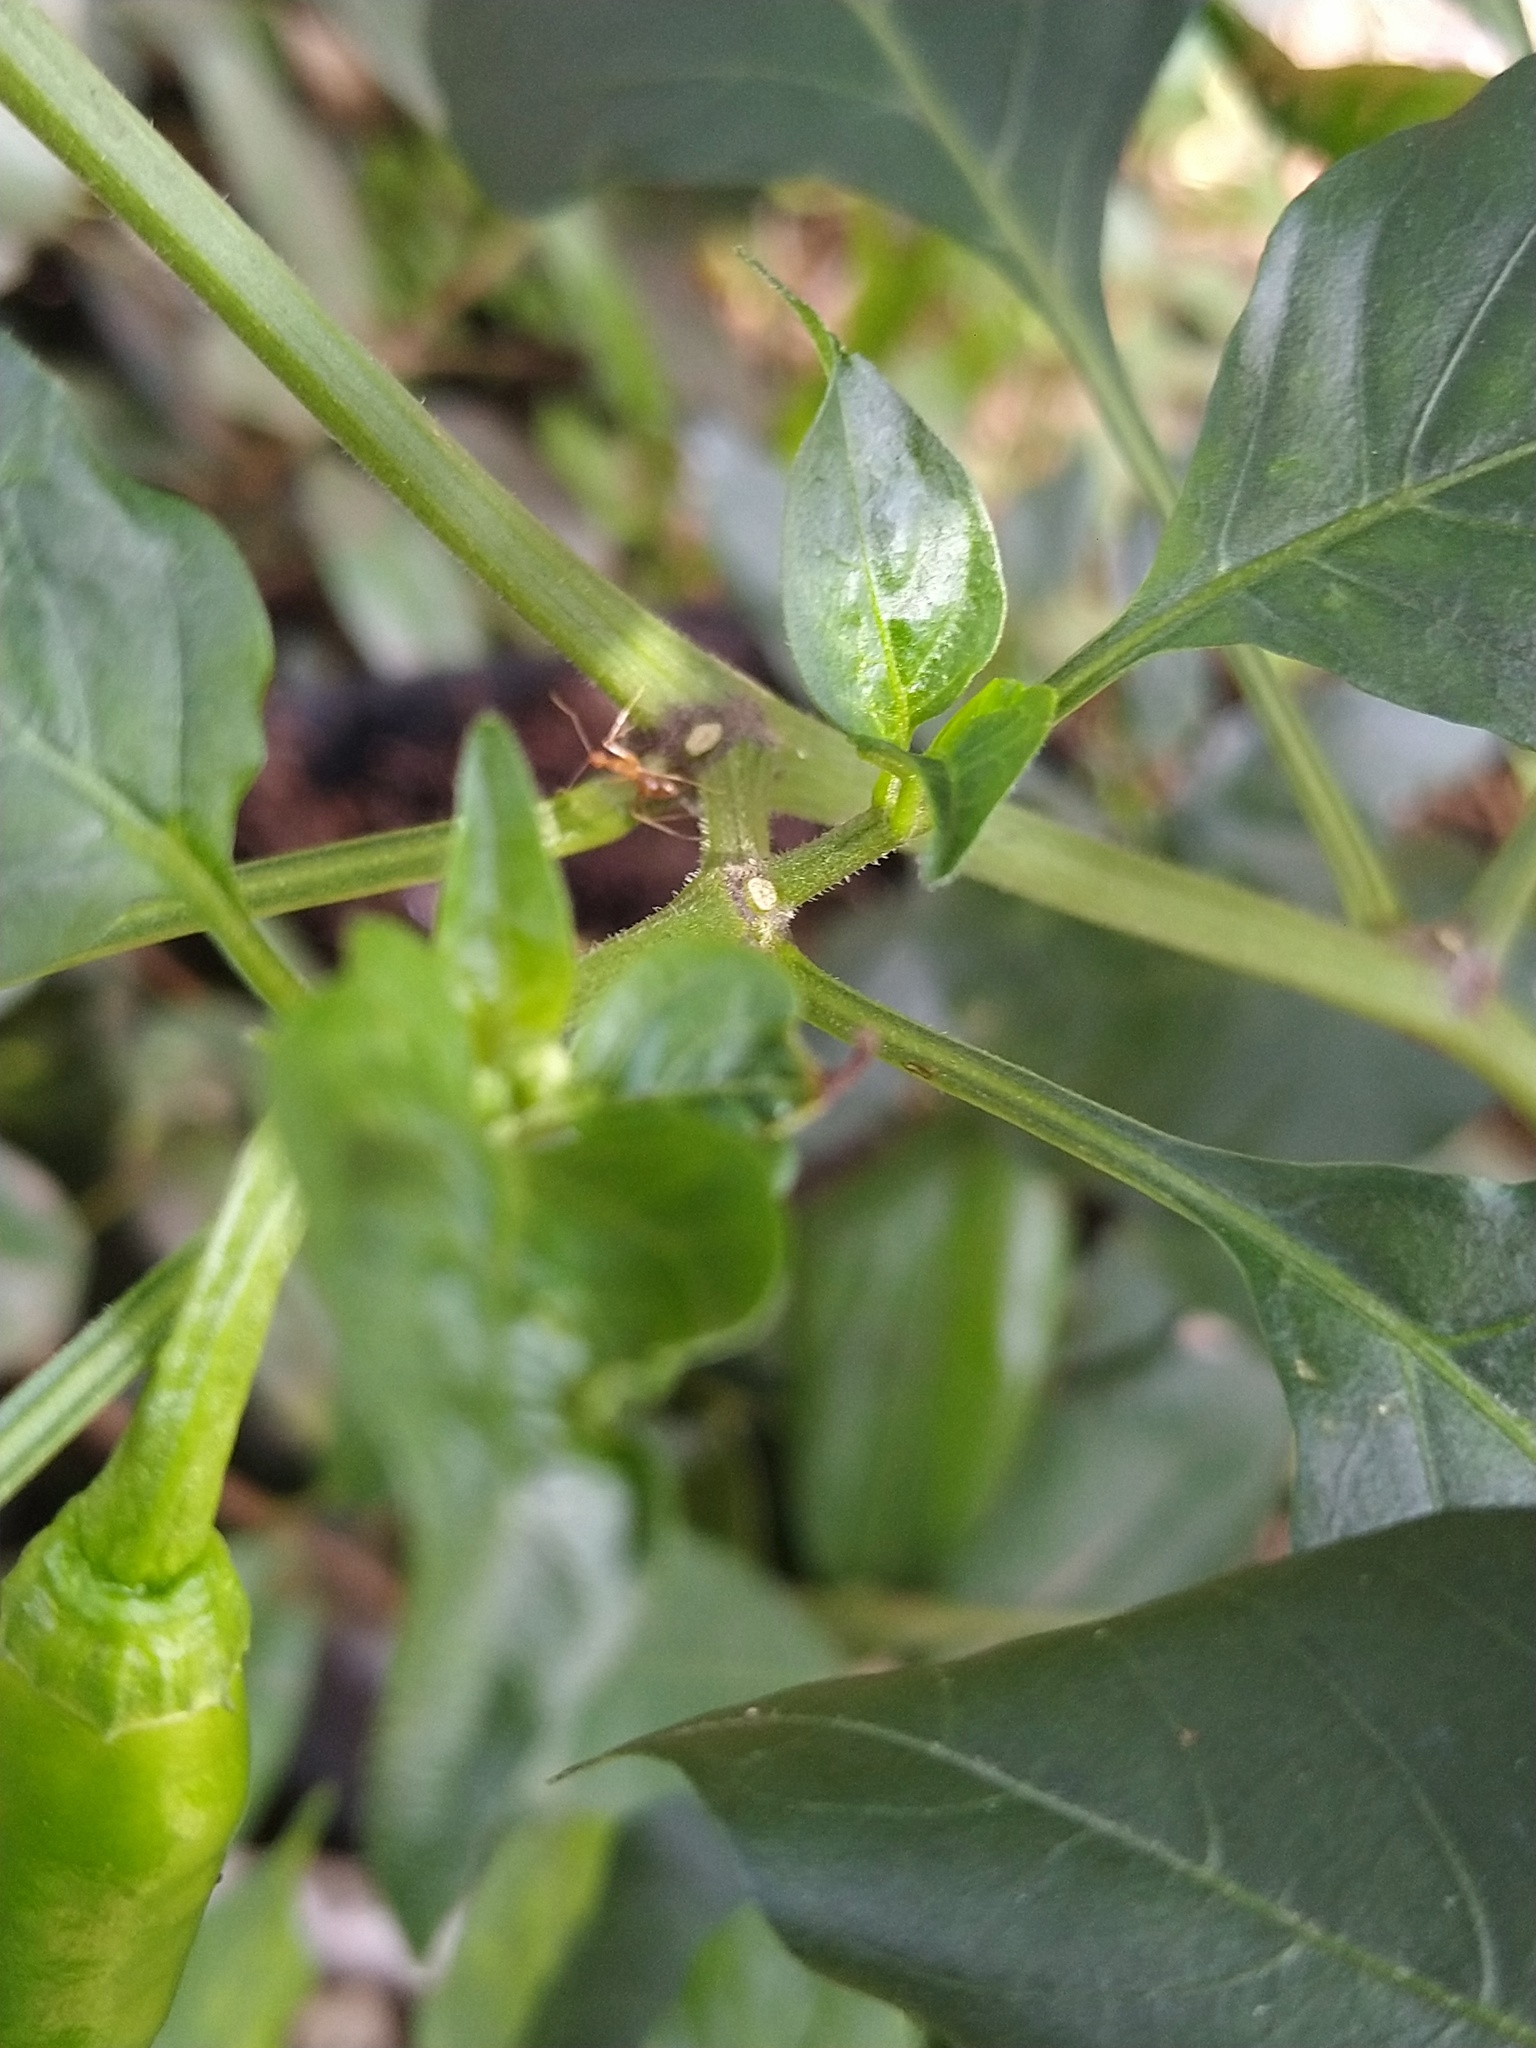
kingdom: Animalia
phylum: Arthropoda
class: Insecta
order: Hymenoptera
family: Formicidae
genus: Anoplolepis
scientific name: Anoplolepis gracilipes
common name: Ant
